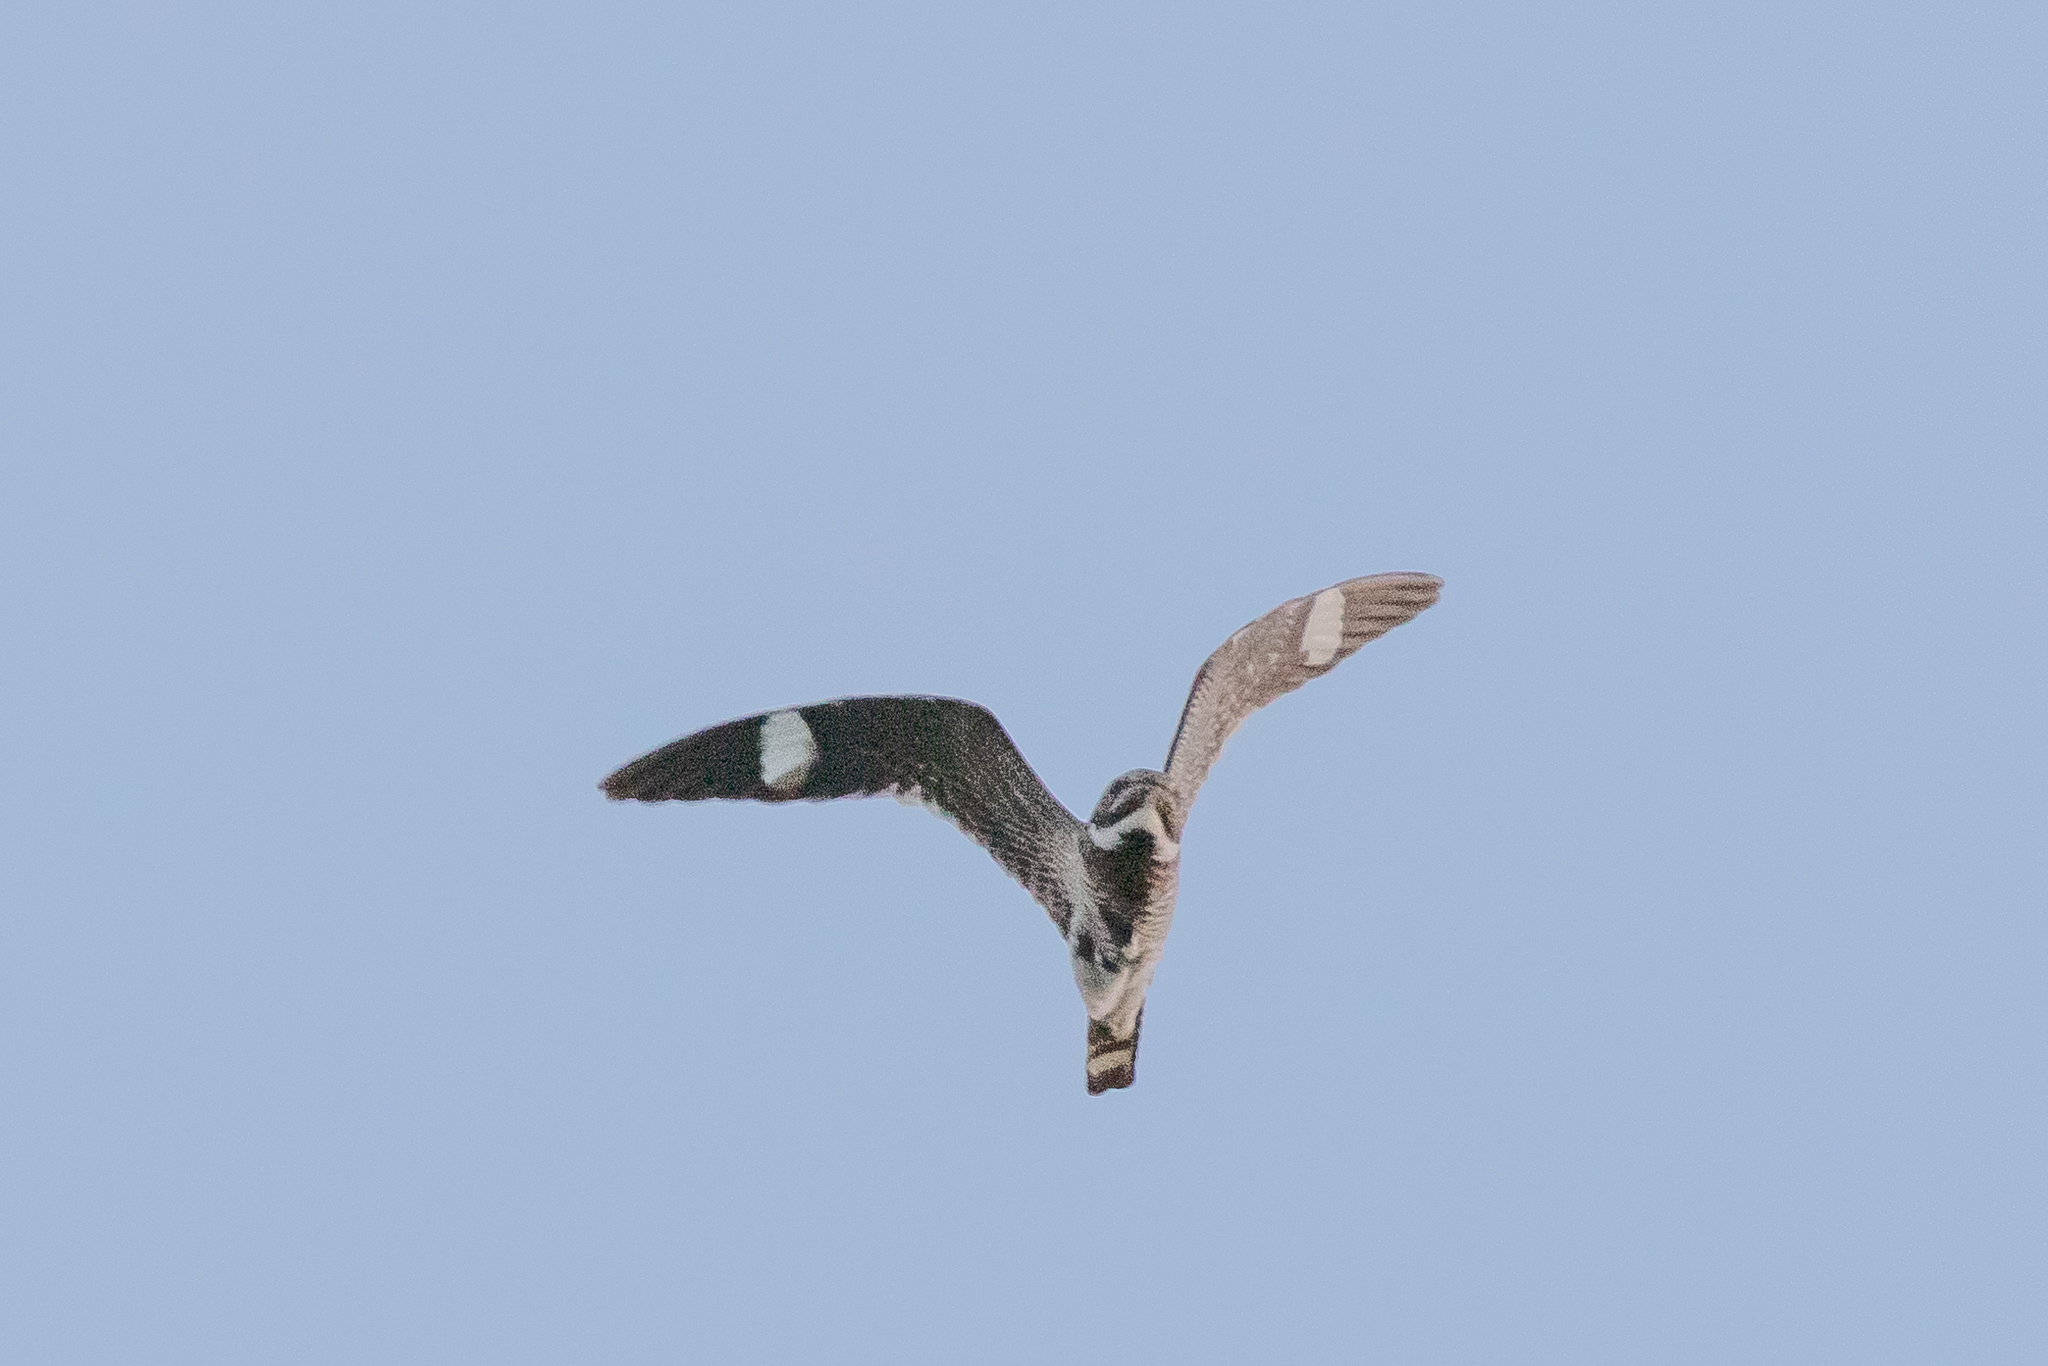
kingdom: Animalia
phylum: Chordata
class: Aves
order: Caprimulgiformes
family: Caprimulgidae
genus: Chordeiles
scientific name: Chordeiles minor
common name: Common nighthawk
